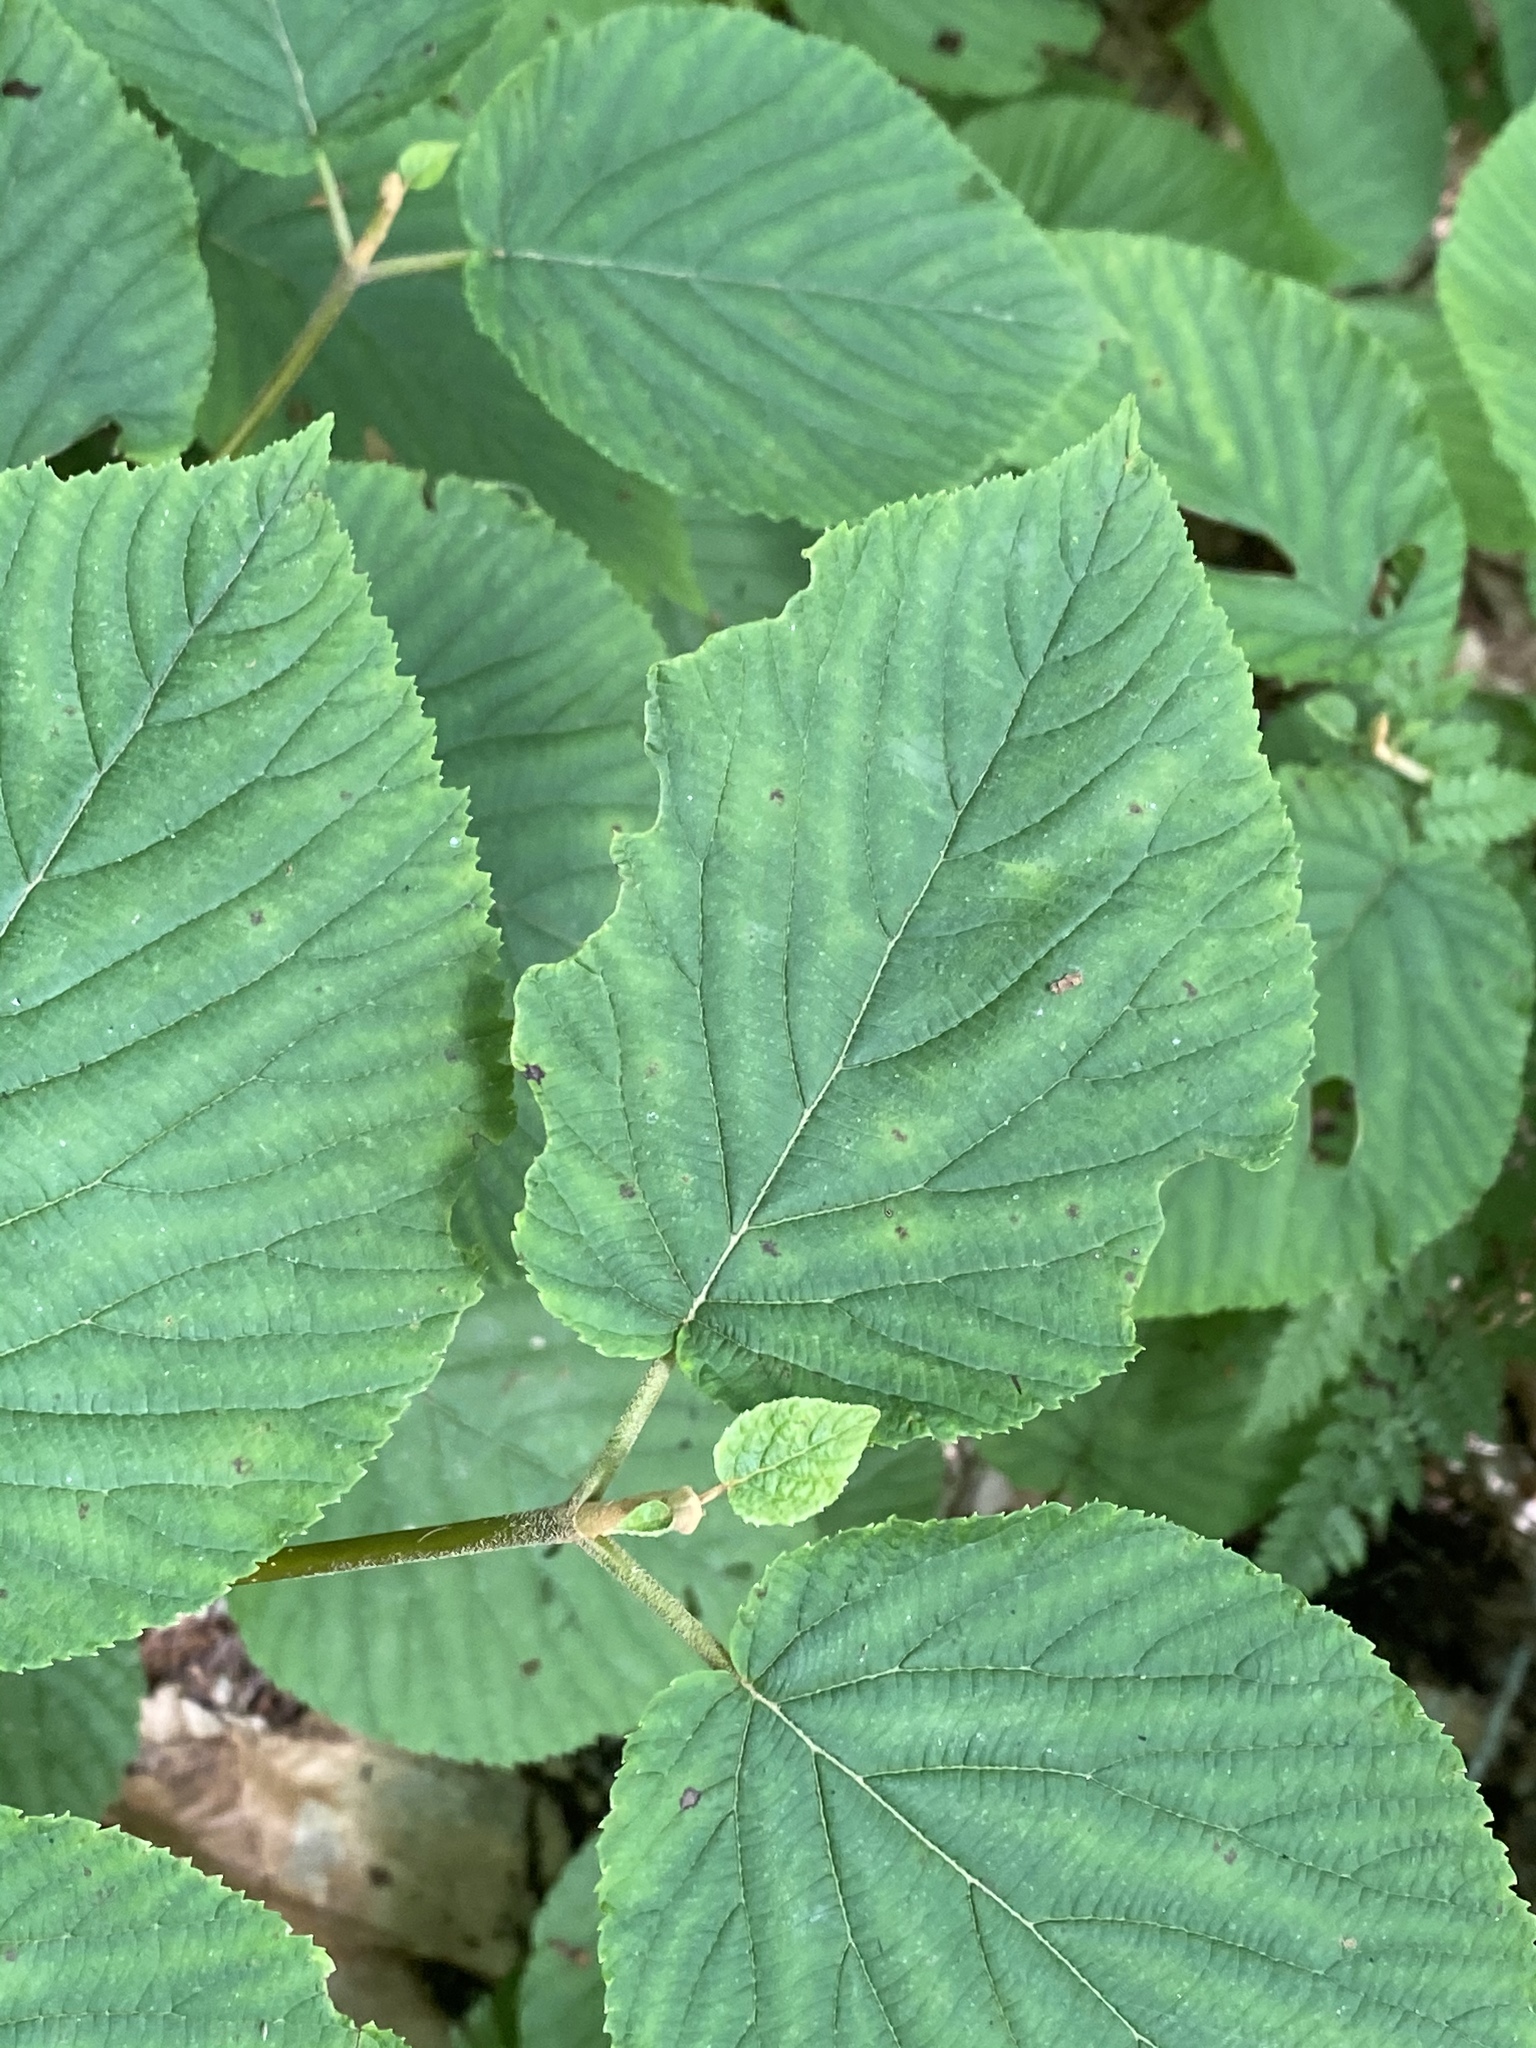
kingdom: Plantae
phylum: Tracheophyta
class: Magnoliopsida
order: Dipsacales
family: Viburnaceae
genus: Viburnum
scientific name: Viburnum lantanoides
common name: Hobblebush
